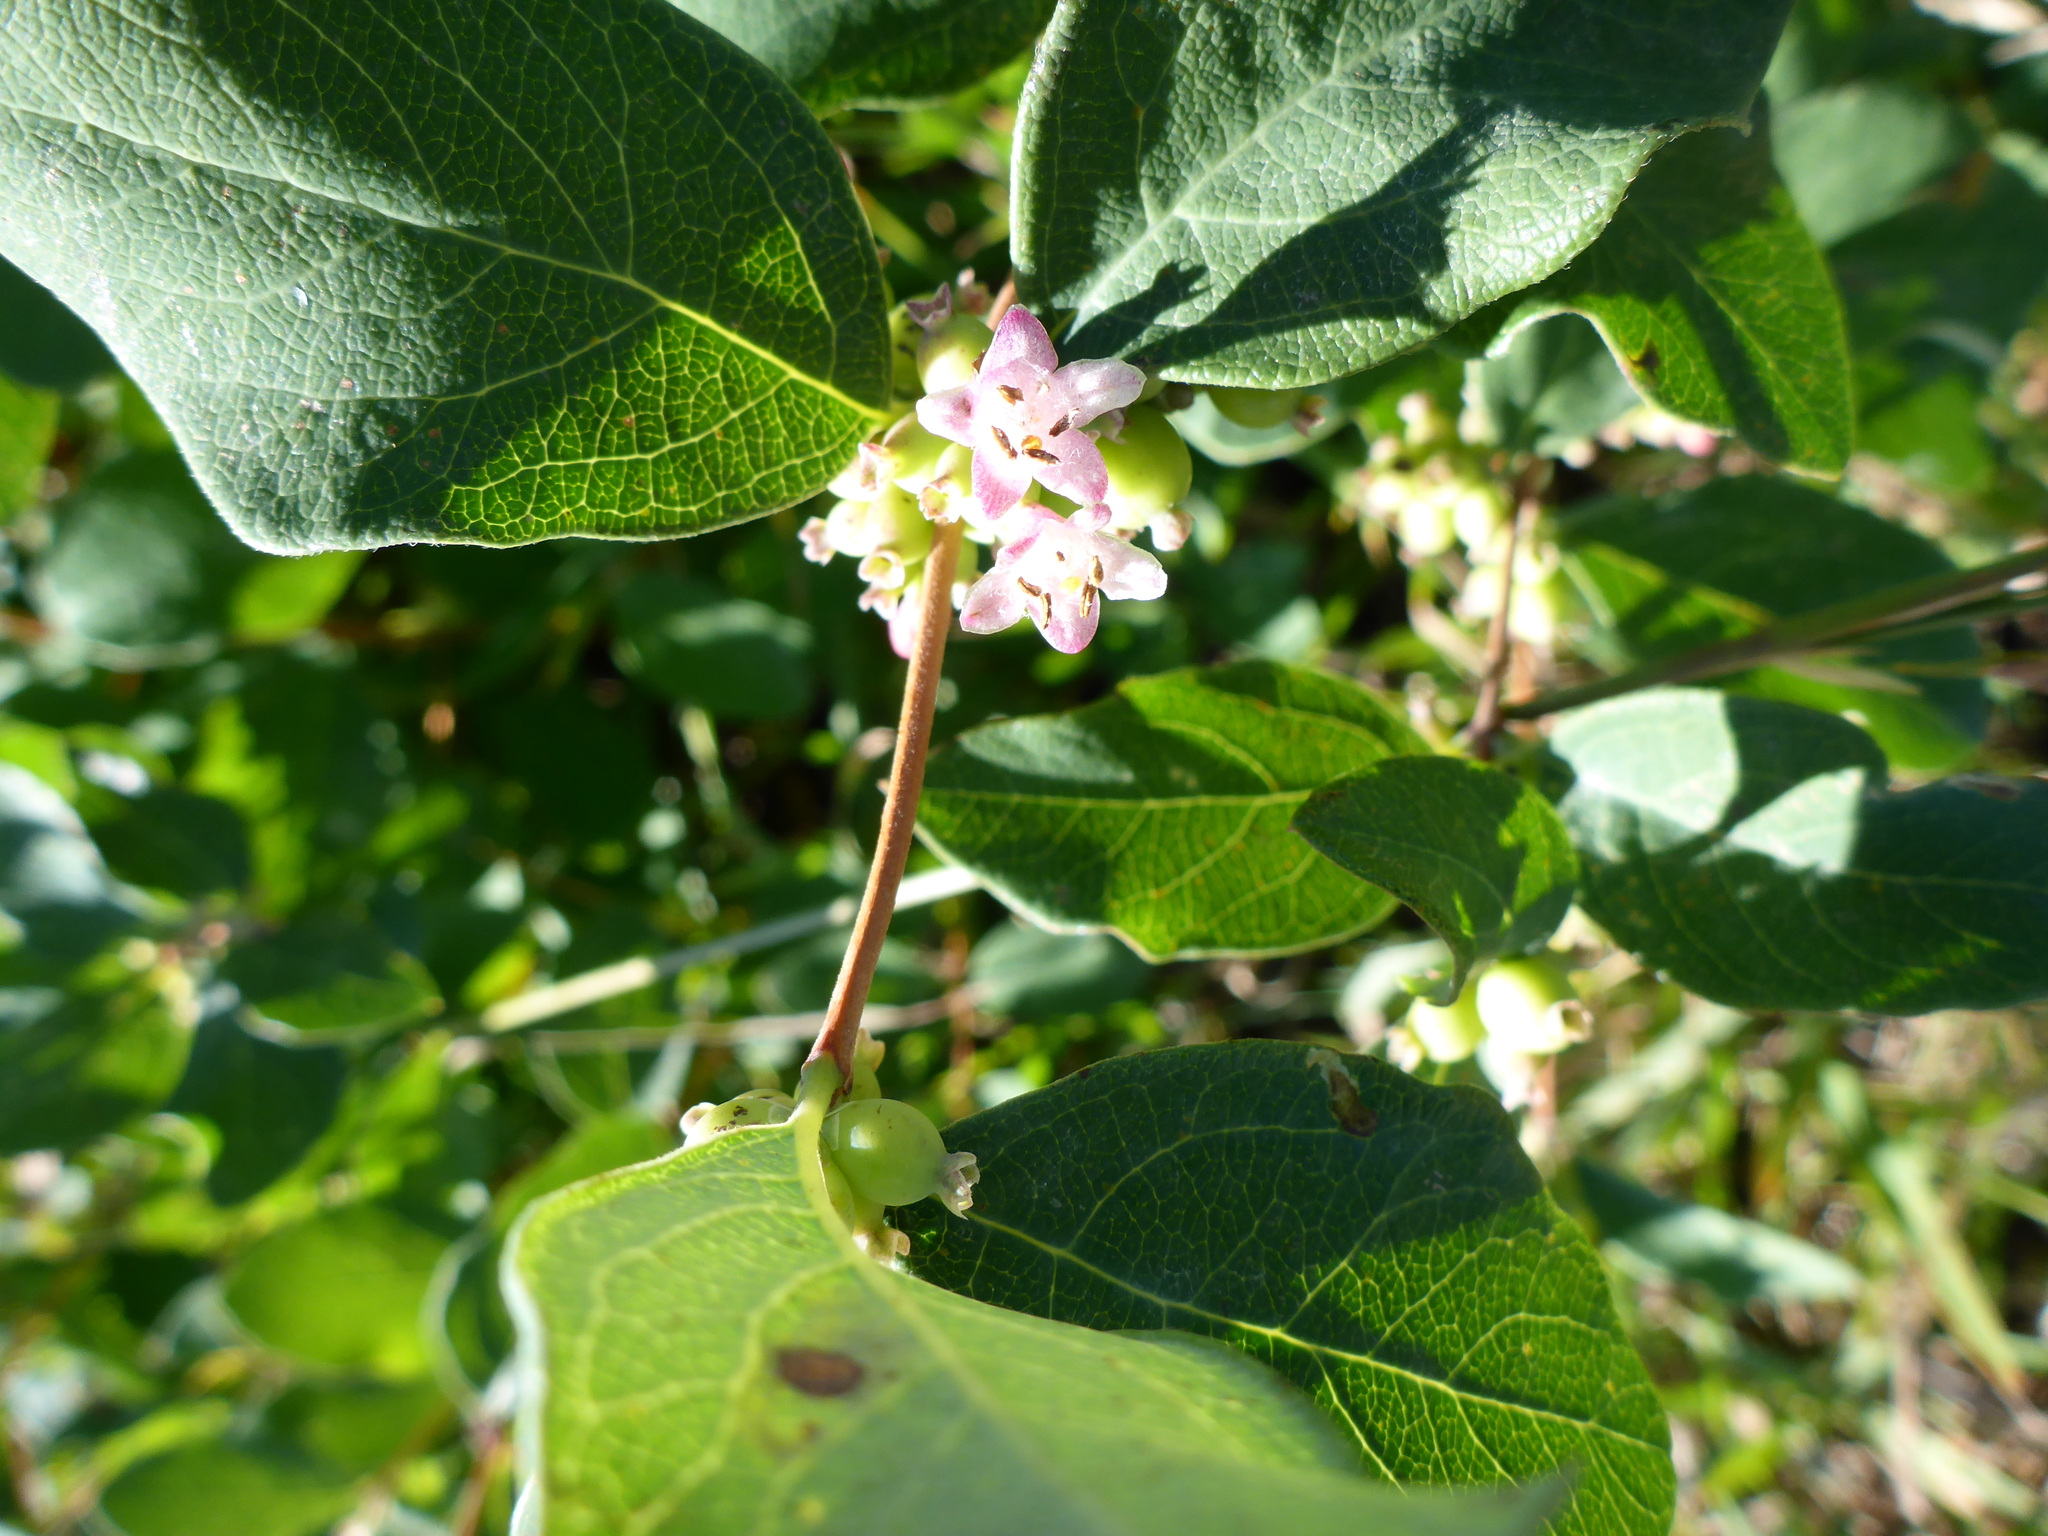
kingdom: Plantae
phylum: Tracheophyta
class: Magnoliopsida
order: Dipsacales
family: Caprifoliaceae
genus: Symphoricarpos
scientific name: Symphoricarpos occidentalis
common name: Wolfberry
